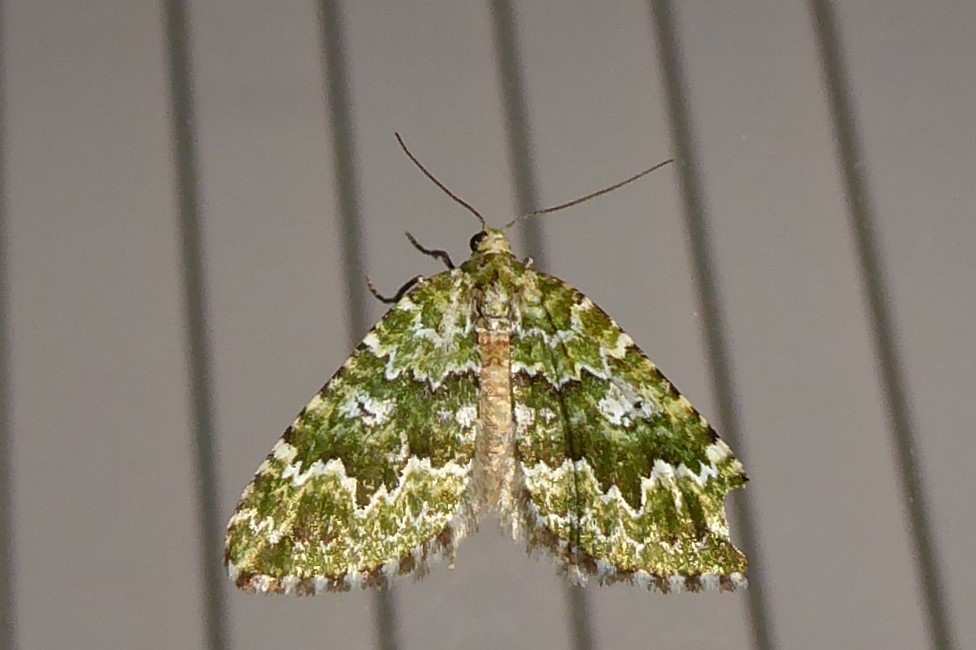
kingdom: Animalia
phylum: Arthropoda
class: Insecta
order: Lepidoptera
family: Geometridae
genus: Asaphodes
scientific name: Asaphodes beata
